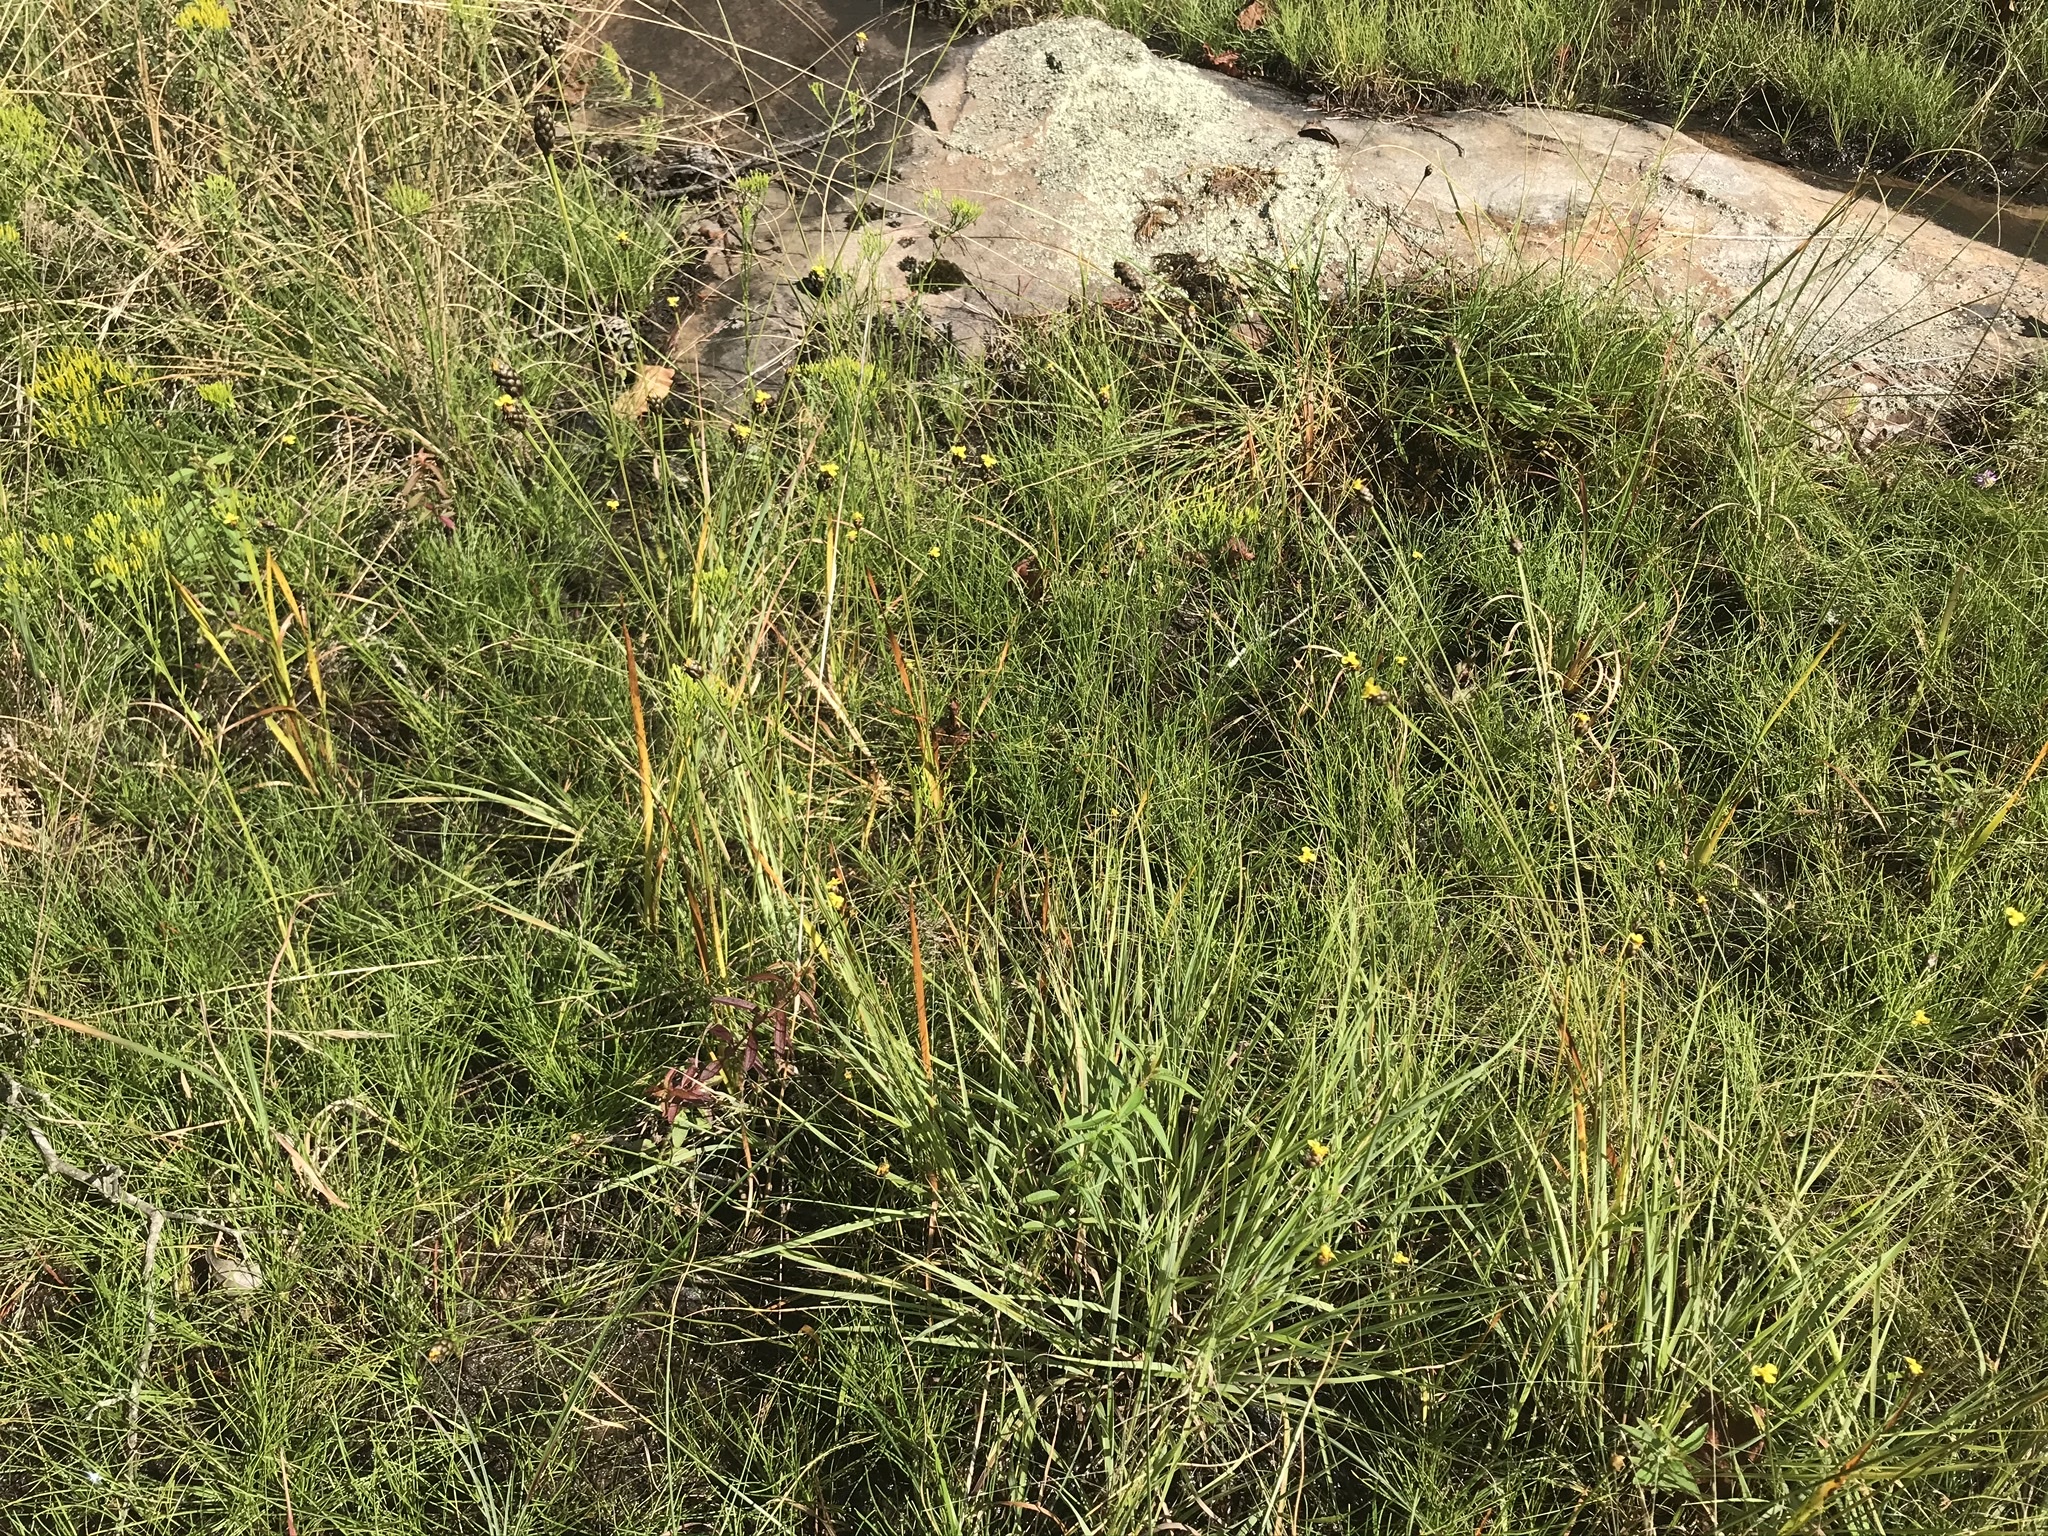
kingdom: Plantae
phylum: Tracheophyta
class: Liliopsida
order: Poales
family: Xyridaceae
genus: Xyris
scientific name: Xyris difformis
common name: Bog yellow-eyed-grass
